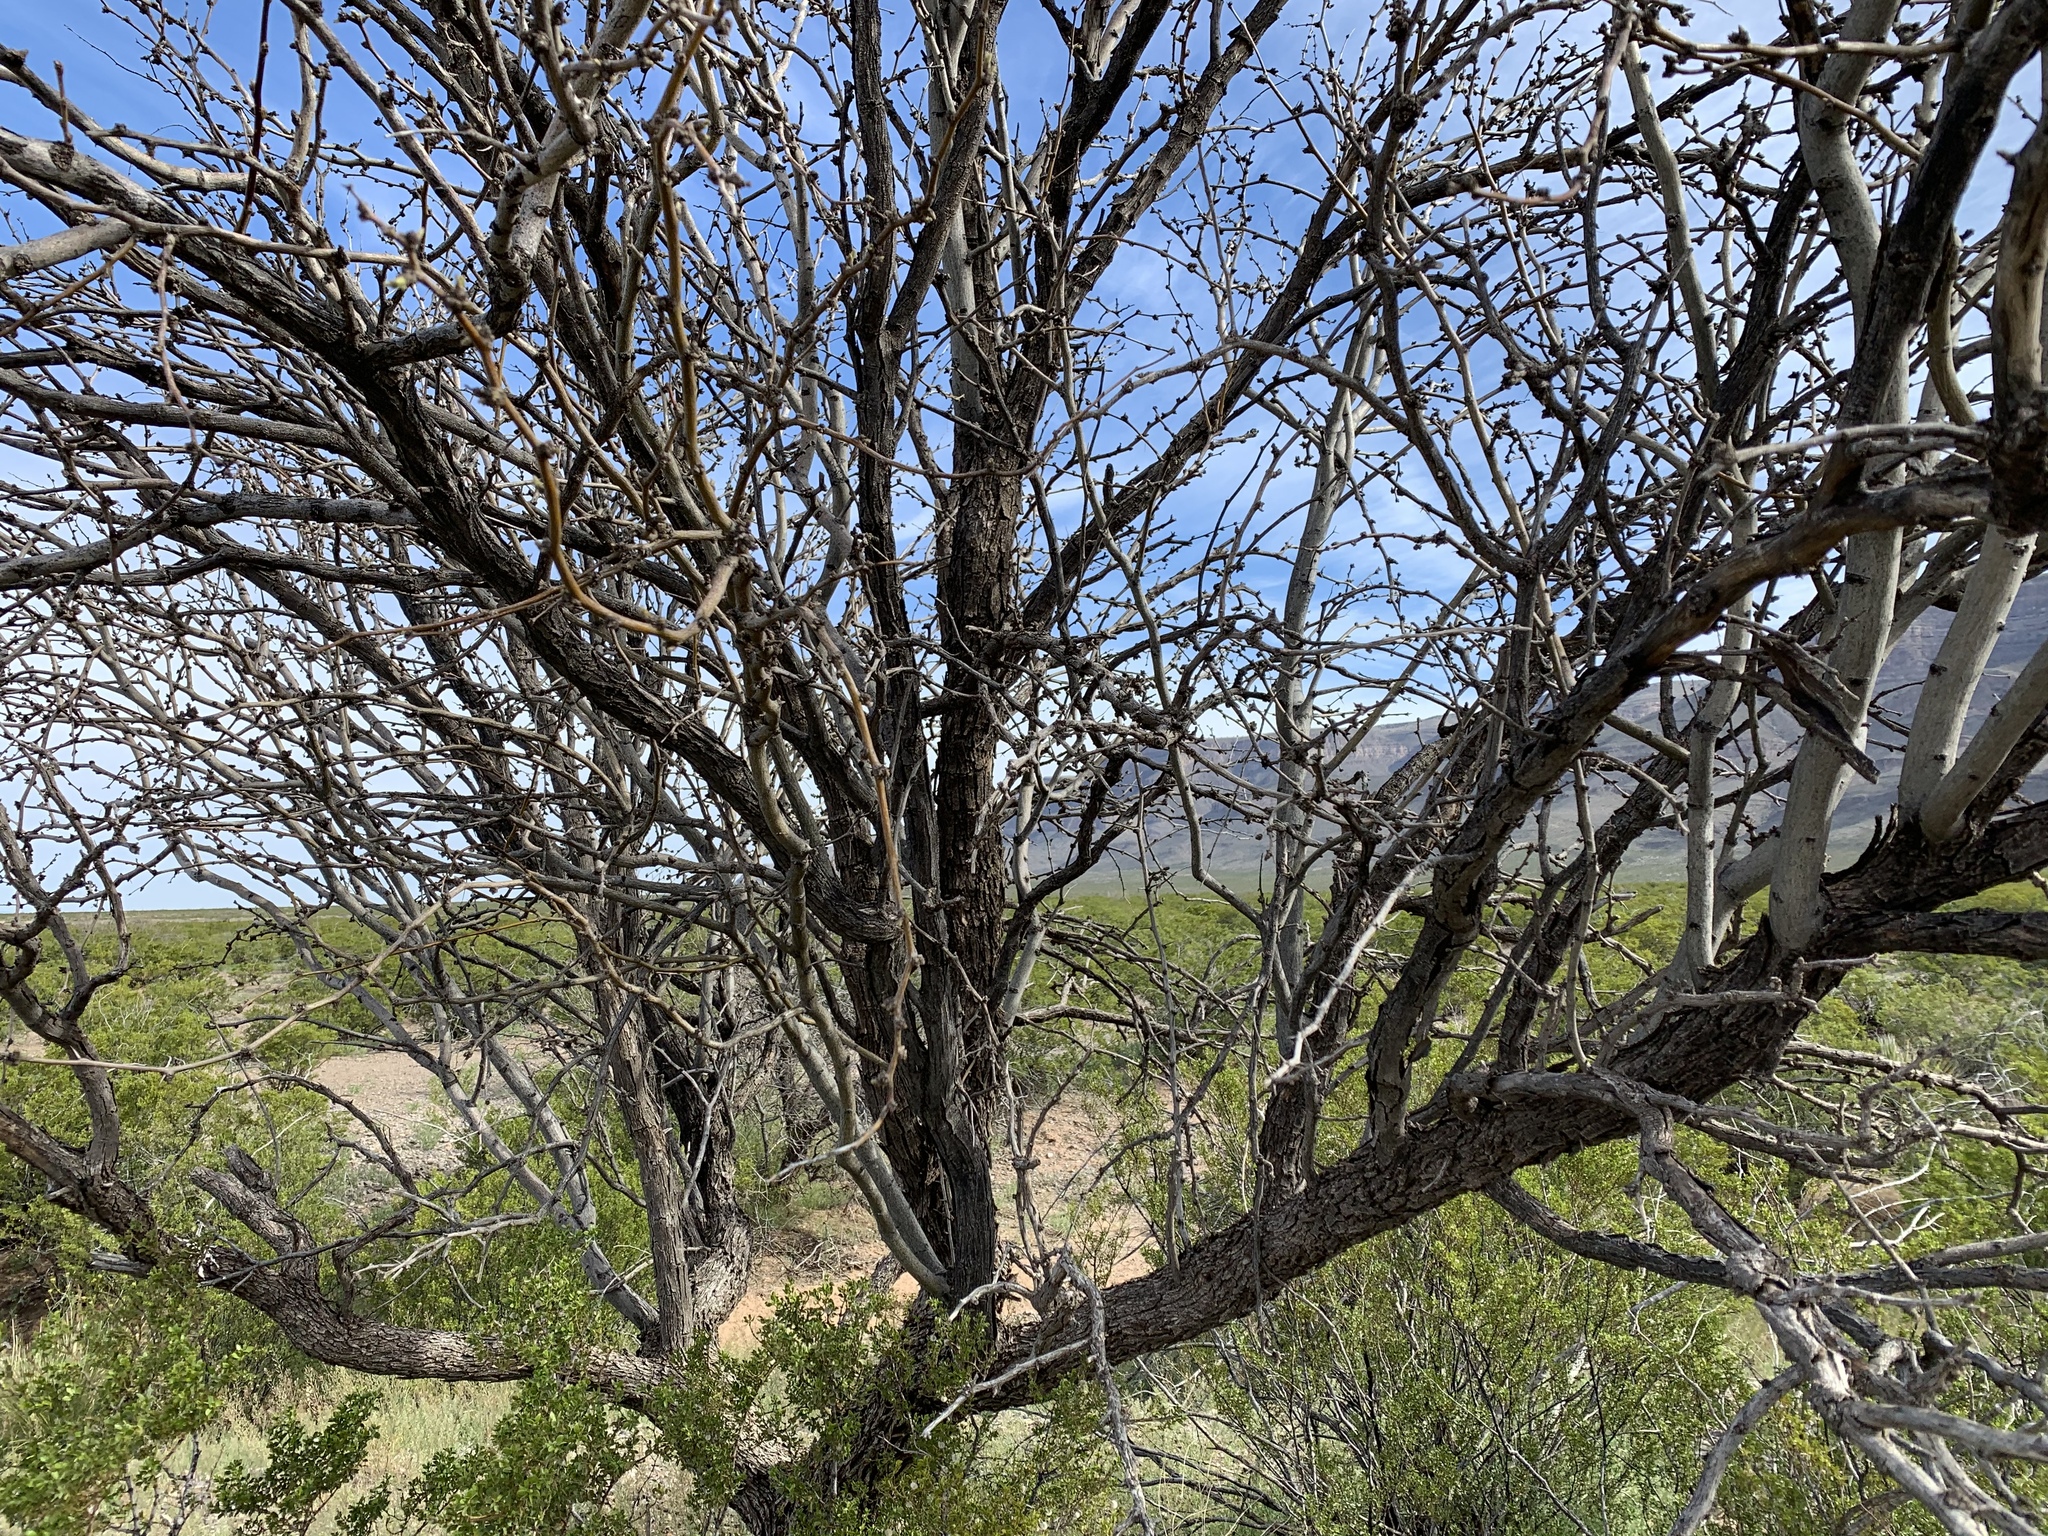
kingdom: Plantae
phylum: Tracheophyta
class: Magnoliopsida
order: Fabales
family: Fabaceae
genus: Prosopis
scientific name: Prosopis glandulosa
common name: Honey mesquite
